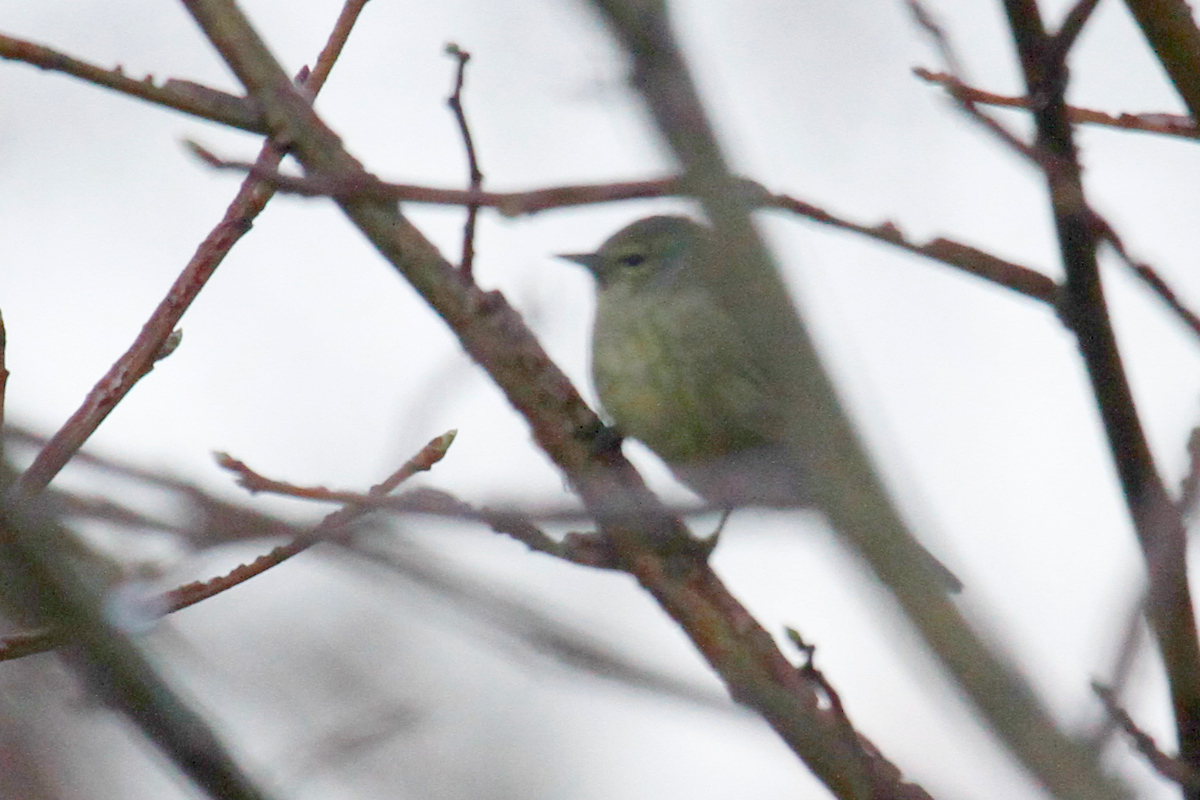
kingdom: Animalia
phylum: Chordata
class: Aves
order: Passeriformes
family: Parulidae
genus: Leiothlypis
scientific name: Leiothlypis celata
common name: Orange-crowned warbler
